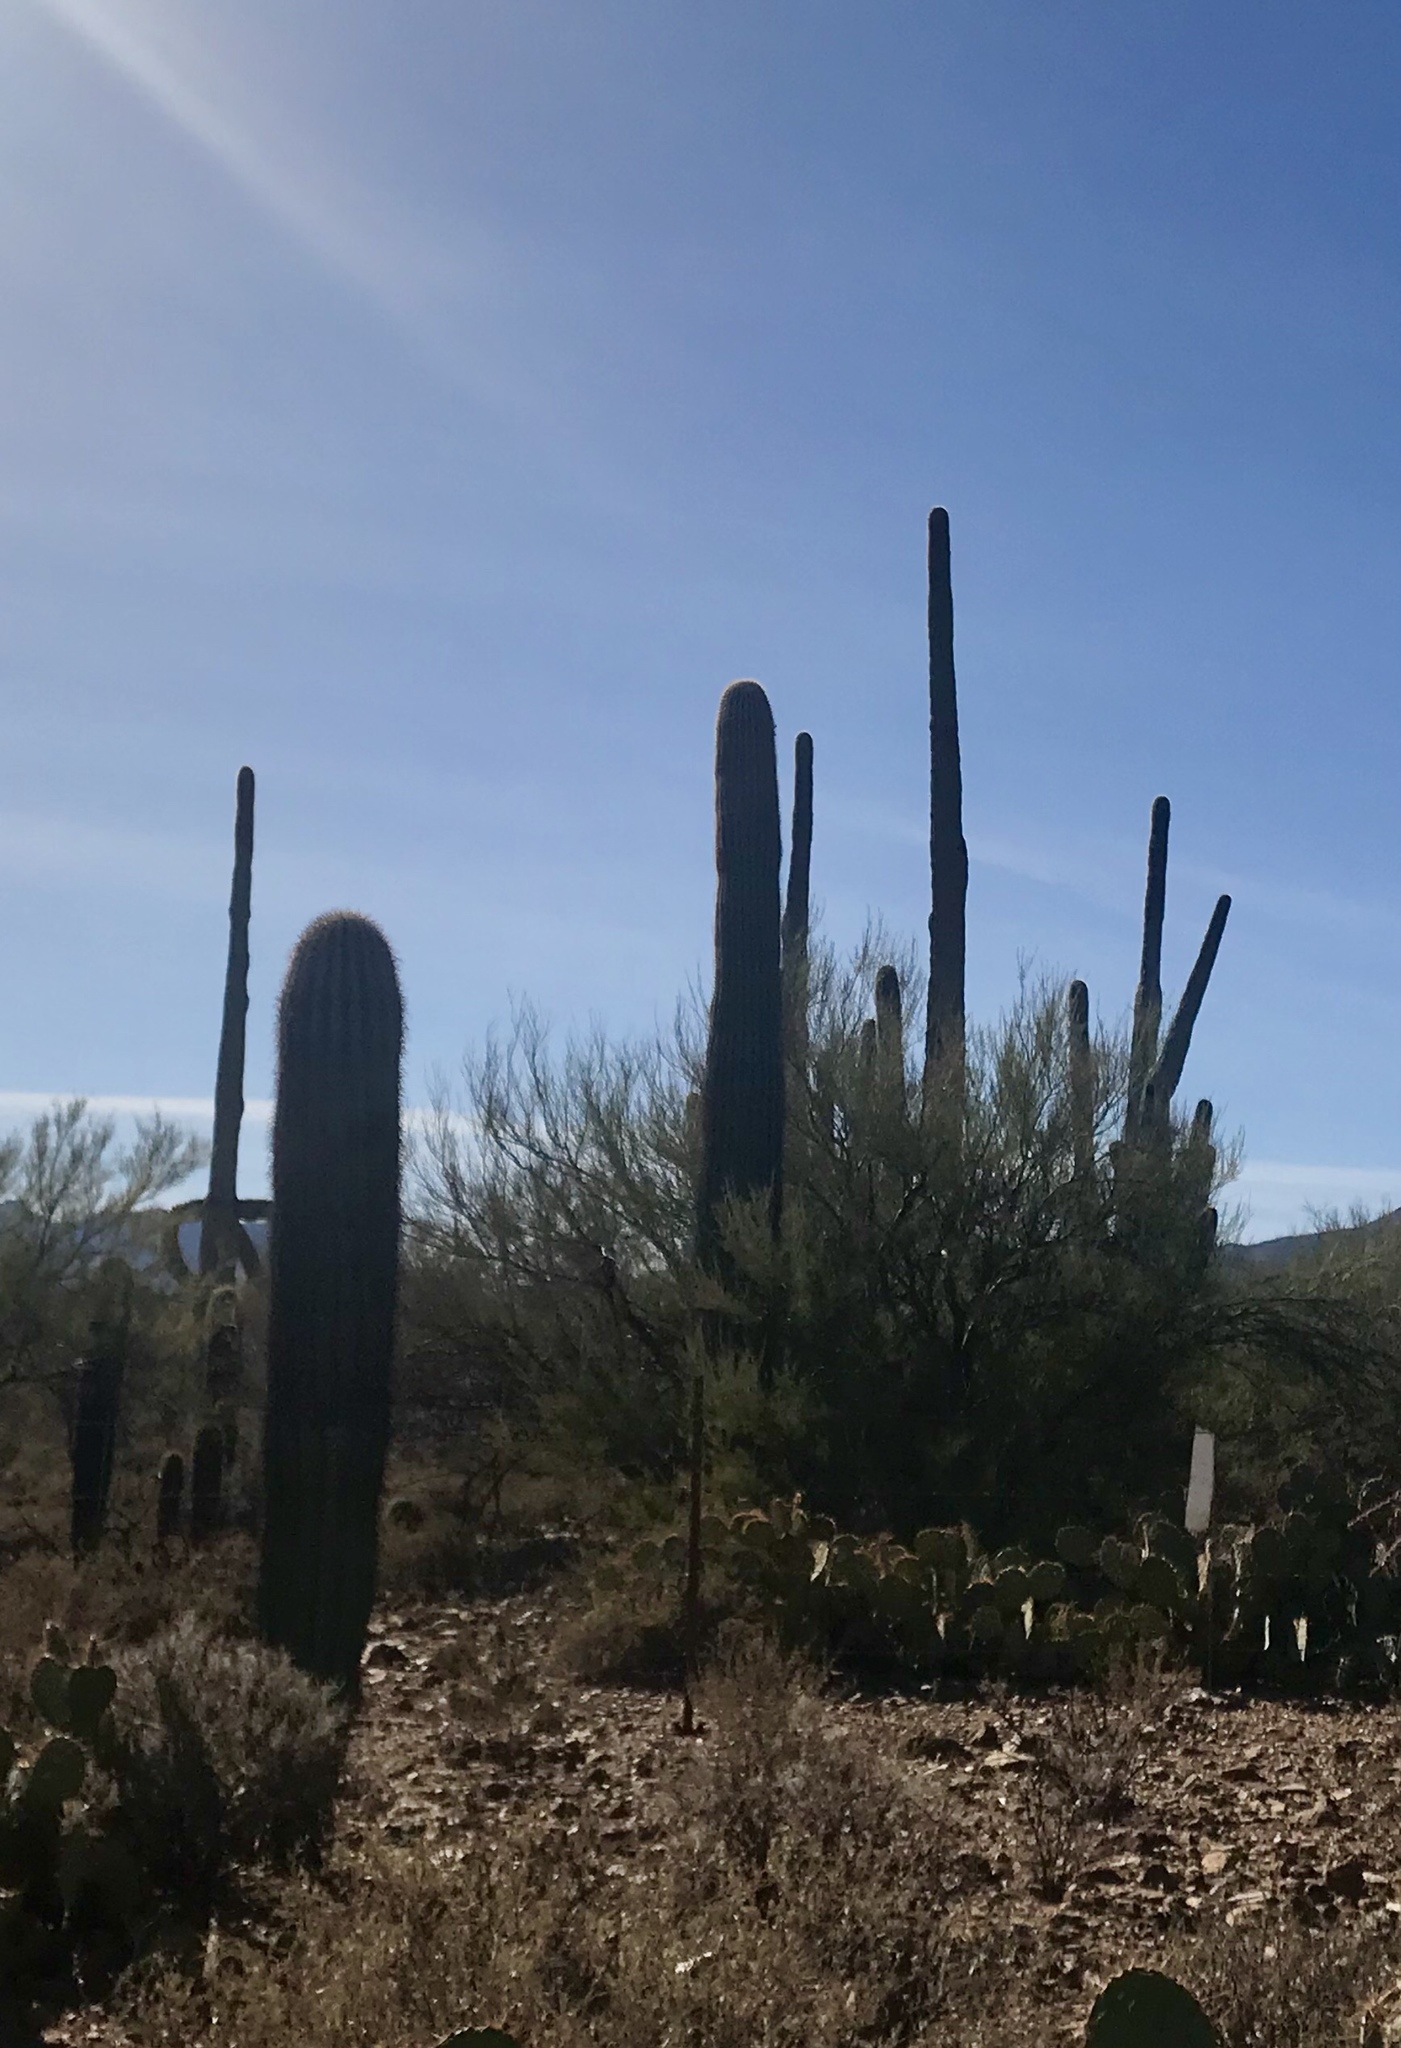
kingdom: Plantae
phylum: Tracheophyta
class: Magnoliopsida
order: Caryophyllales
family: Cactaceae
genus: Carnegiea
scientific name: Carnegiea gigantea
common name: Saguaro
